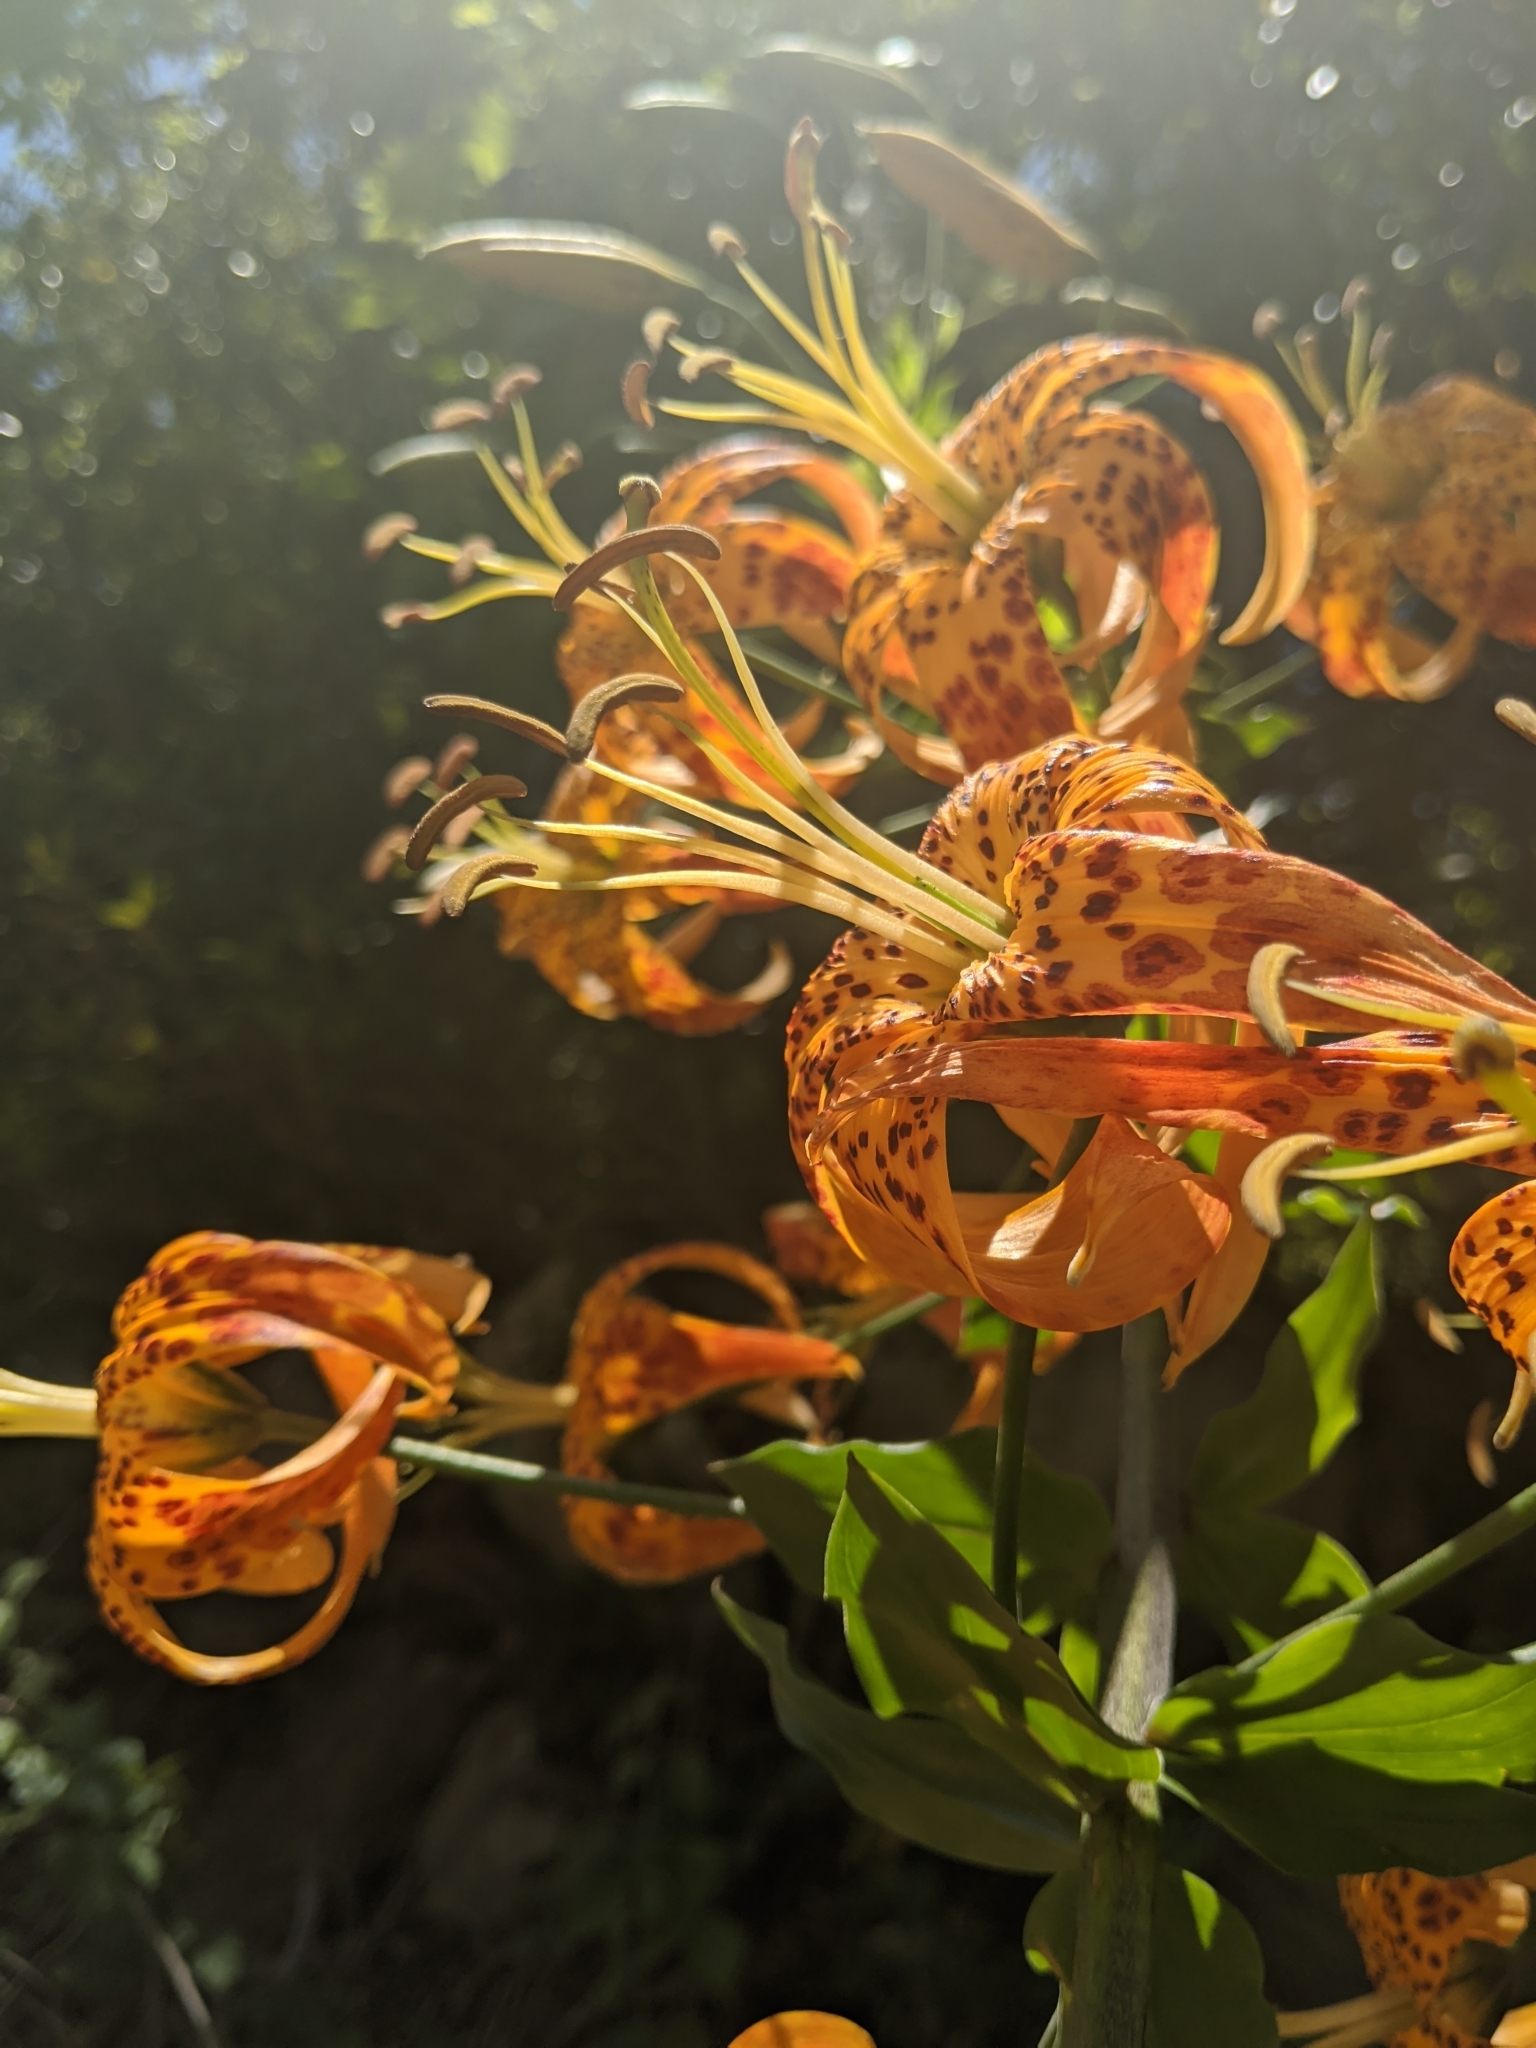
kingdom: Plantae
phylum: Tracheophyta
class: Liliopsida
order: Liliales
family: Liliaceae
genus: Lilium
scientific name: Lilium humboldtii
